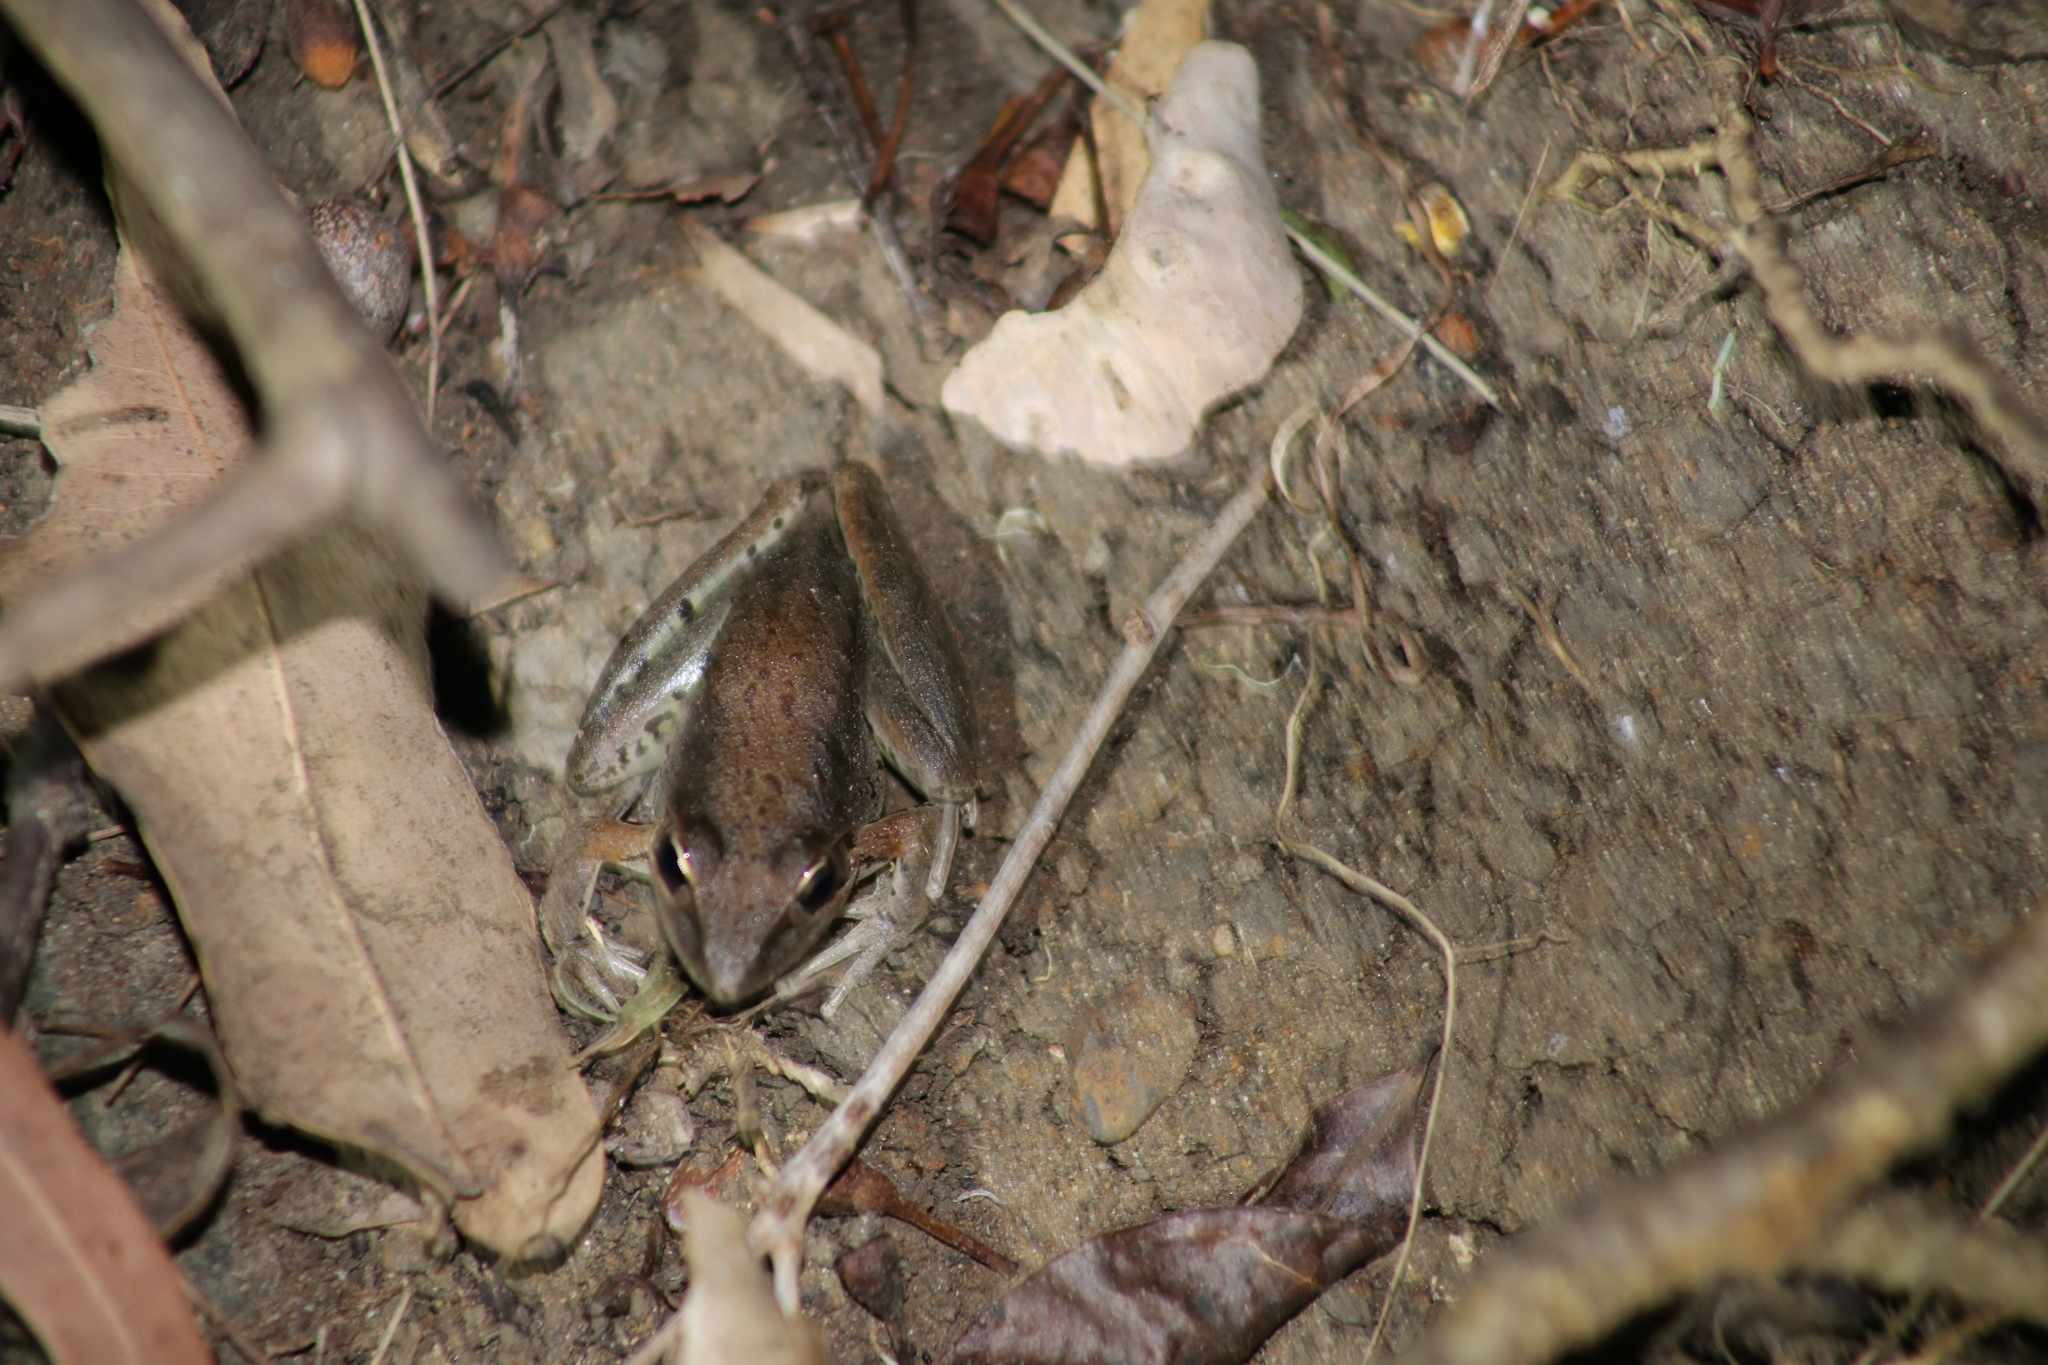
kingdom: Animalia
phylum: Chordata
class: Amphibia
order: Anura
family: Pelodryadidae
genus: Litoria
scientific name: Litoria latopalmata
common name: Broad-palmed rocket frog
